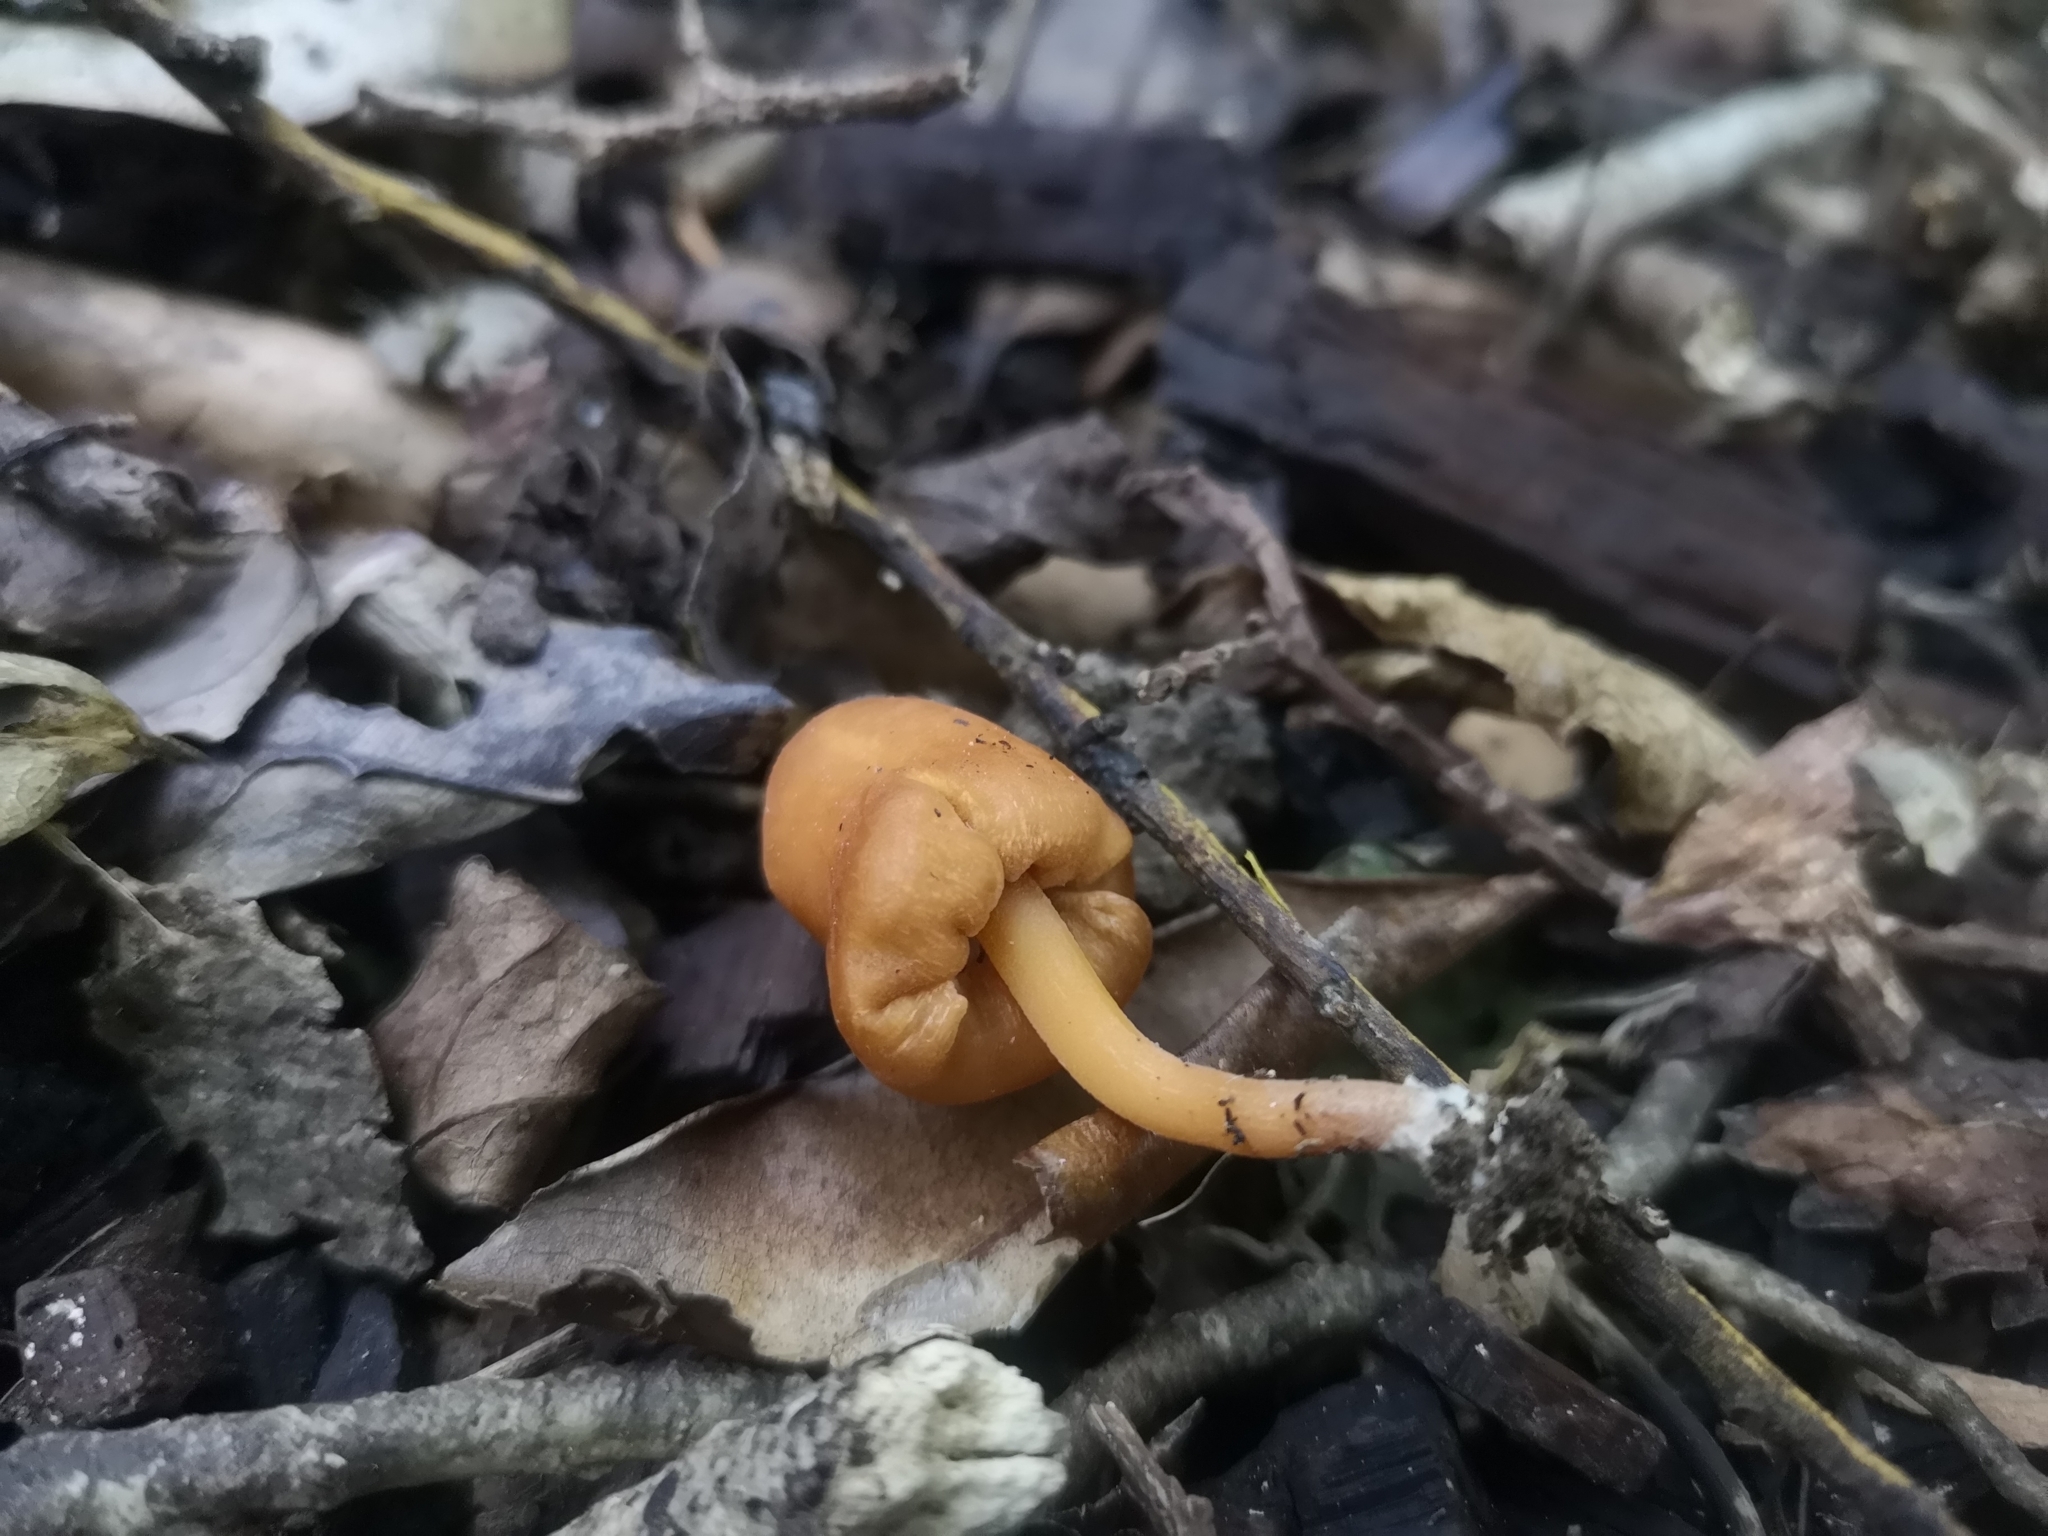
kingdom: Fungi
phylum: Basidiomycota
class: Agaricomycetes
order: Agaricales
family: Macrocystidiaceae
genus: Macrocystidia
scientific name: Macrocystidia reducta
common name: The fishy pouch
